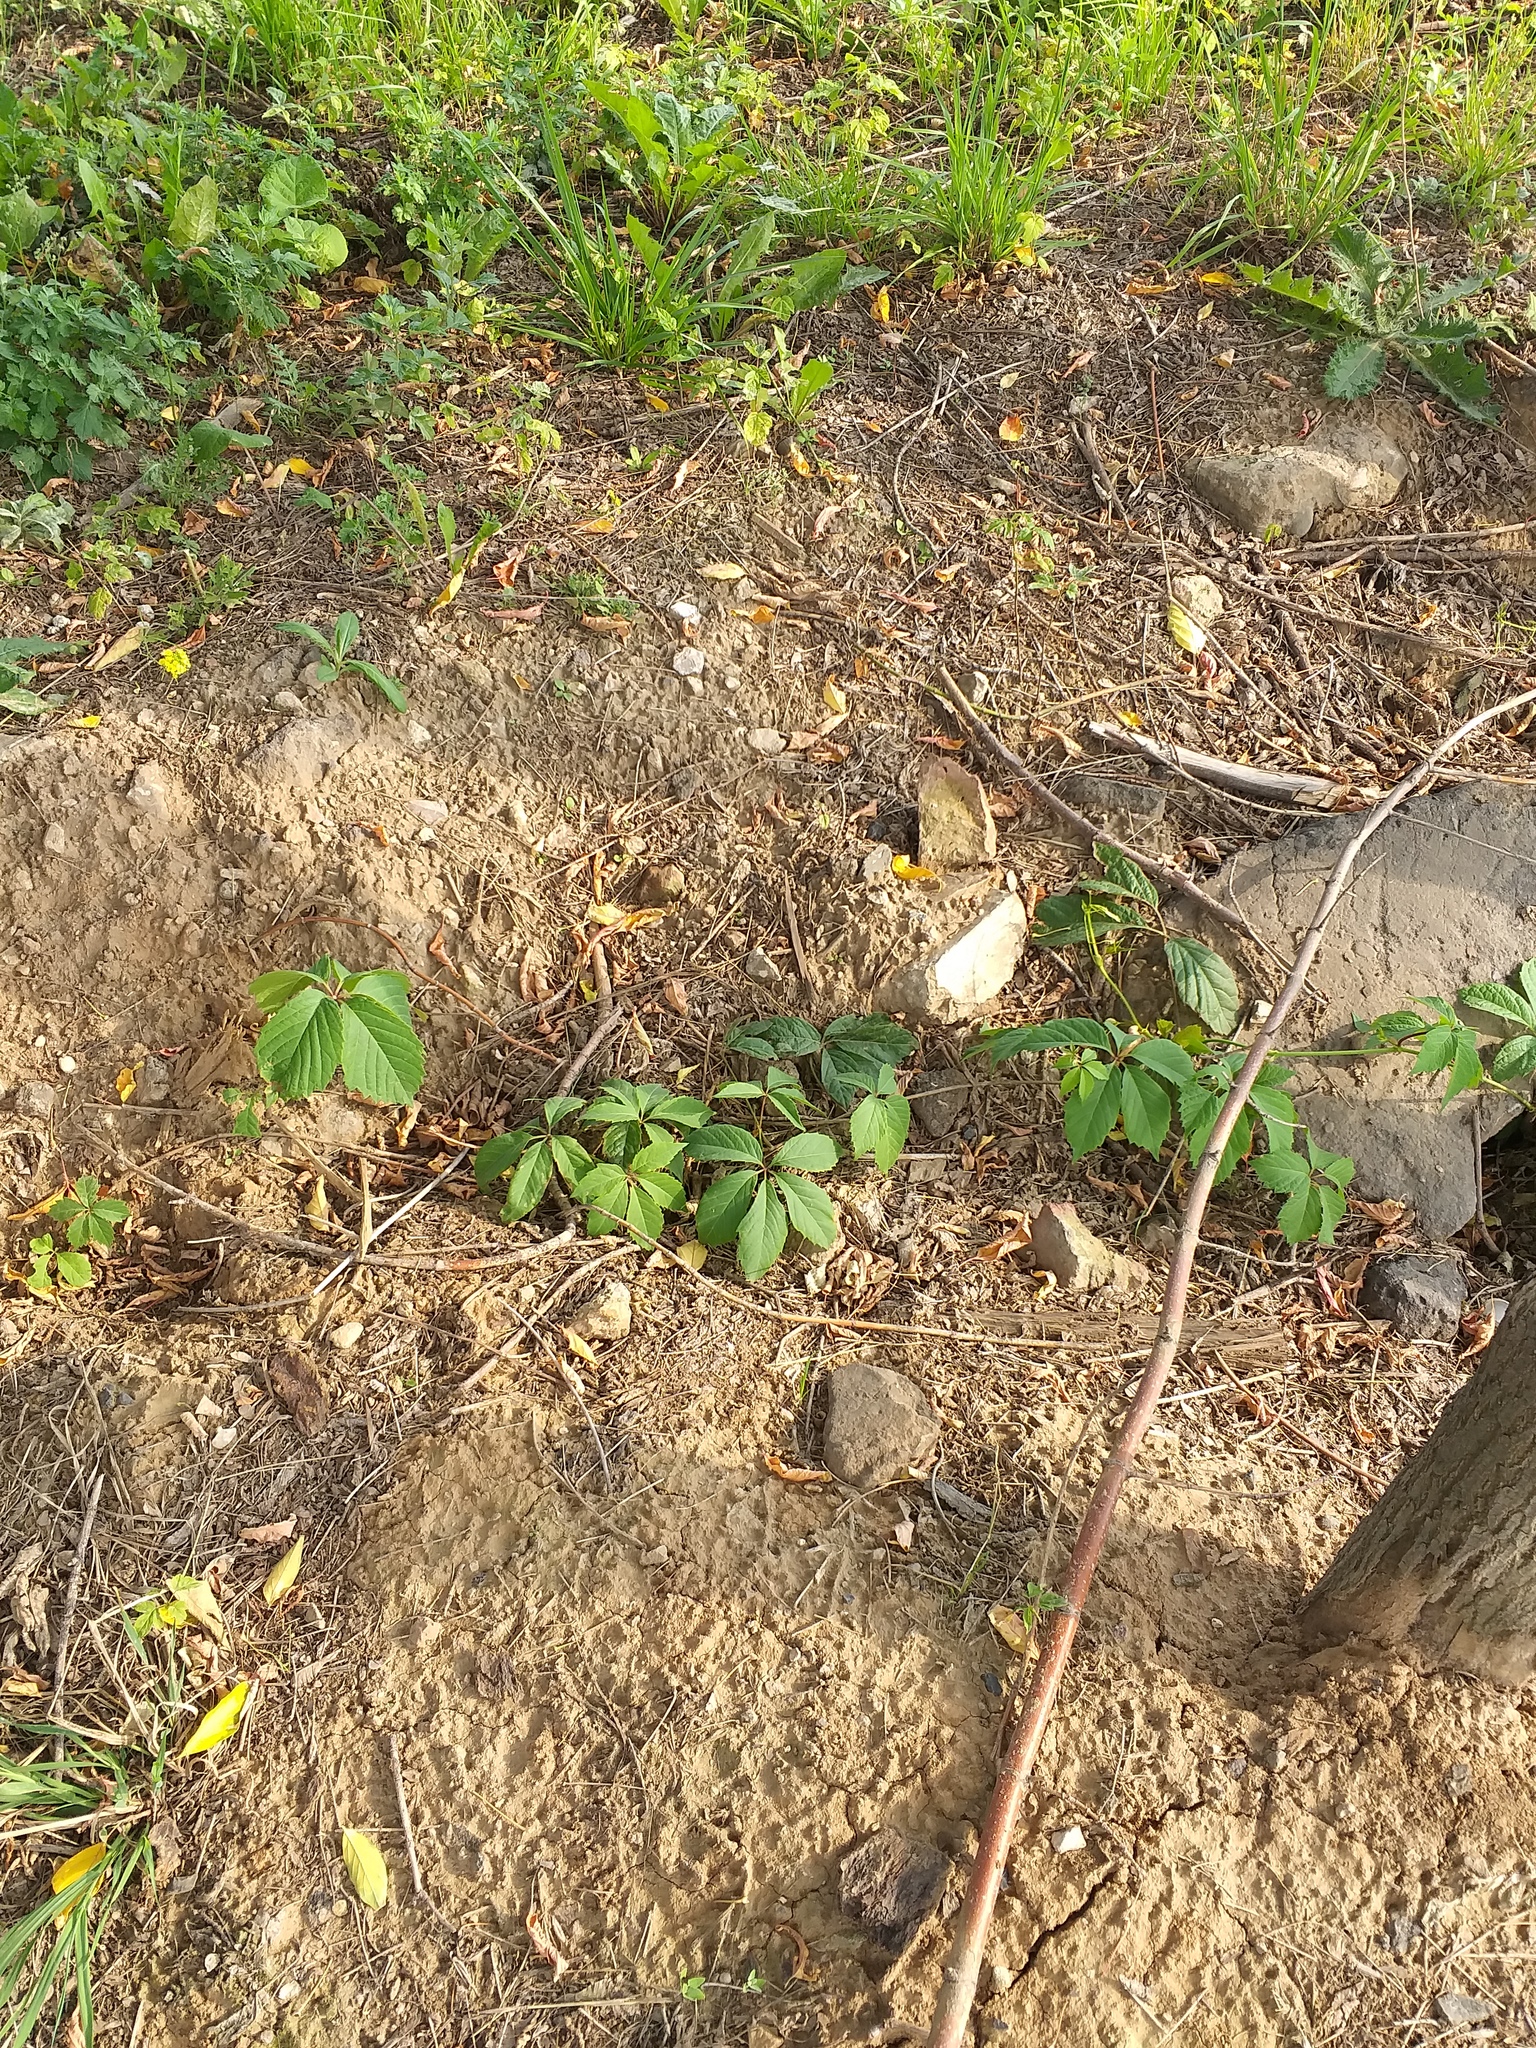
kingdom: Plantae
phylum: Tracheophyta
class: Magnoliopsida
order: Vitales
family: Vitaceae
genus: Parthenocissus
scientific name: Parthenocissus inserta
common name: False virginia-creeper
